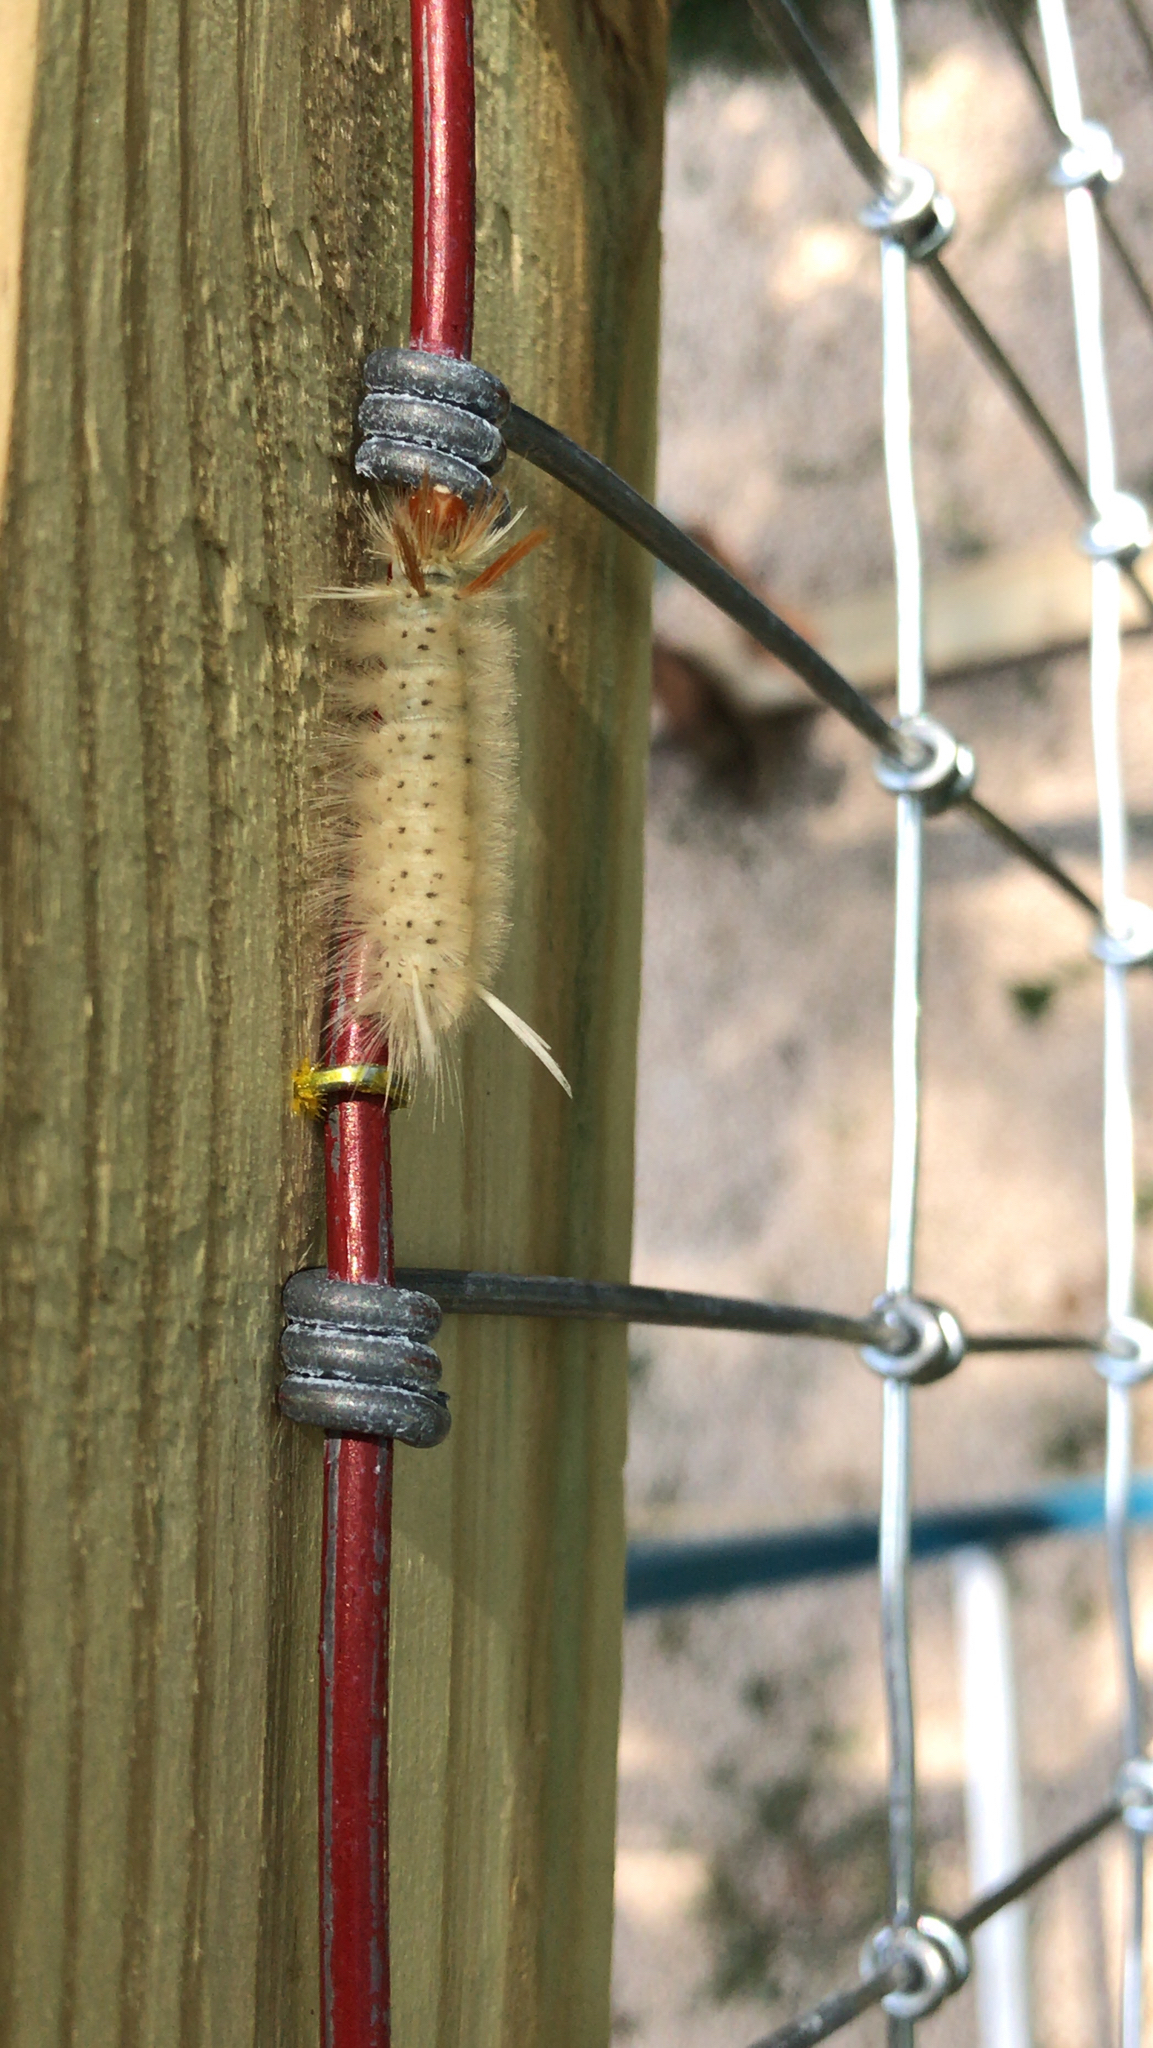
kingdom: Animalia
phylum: Arthropoda
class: Insecta
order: Lepidoptera
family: Erebidae
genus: Halysidota
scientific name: Halysidota harrisii
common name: Sycamore tussock moth
